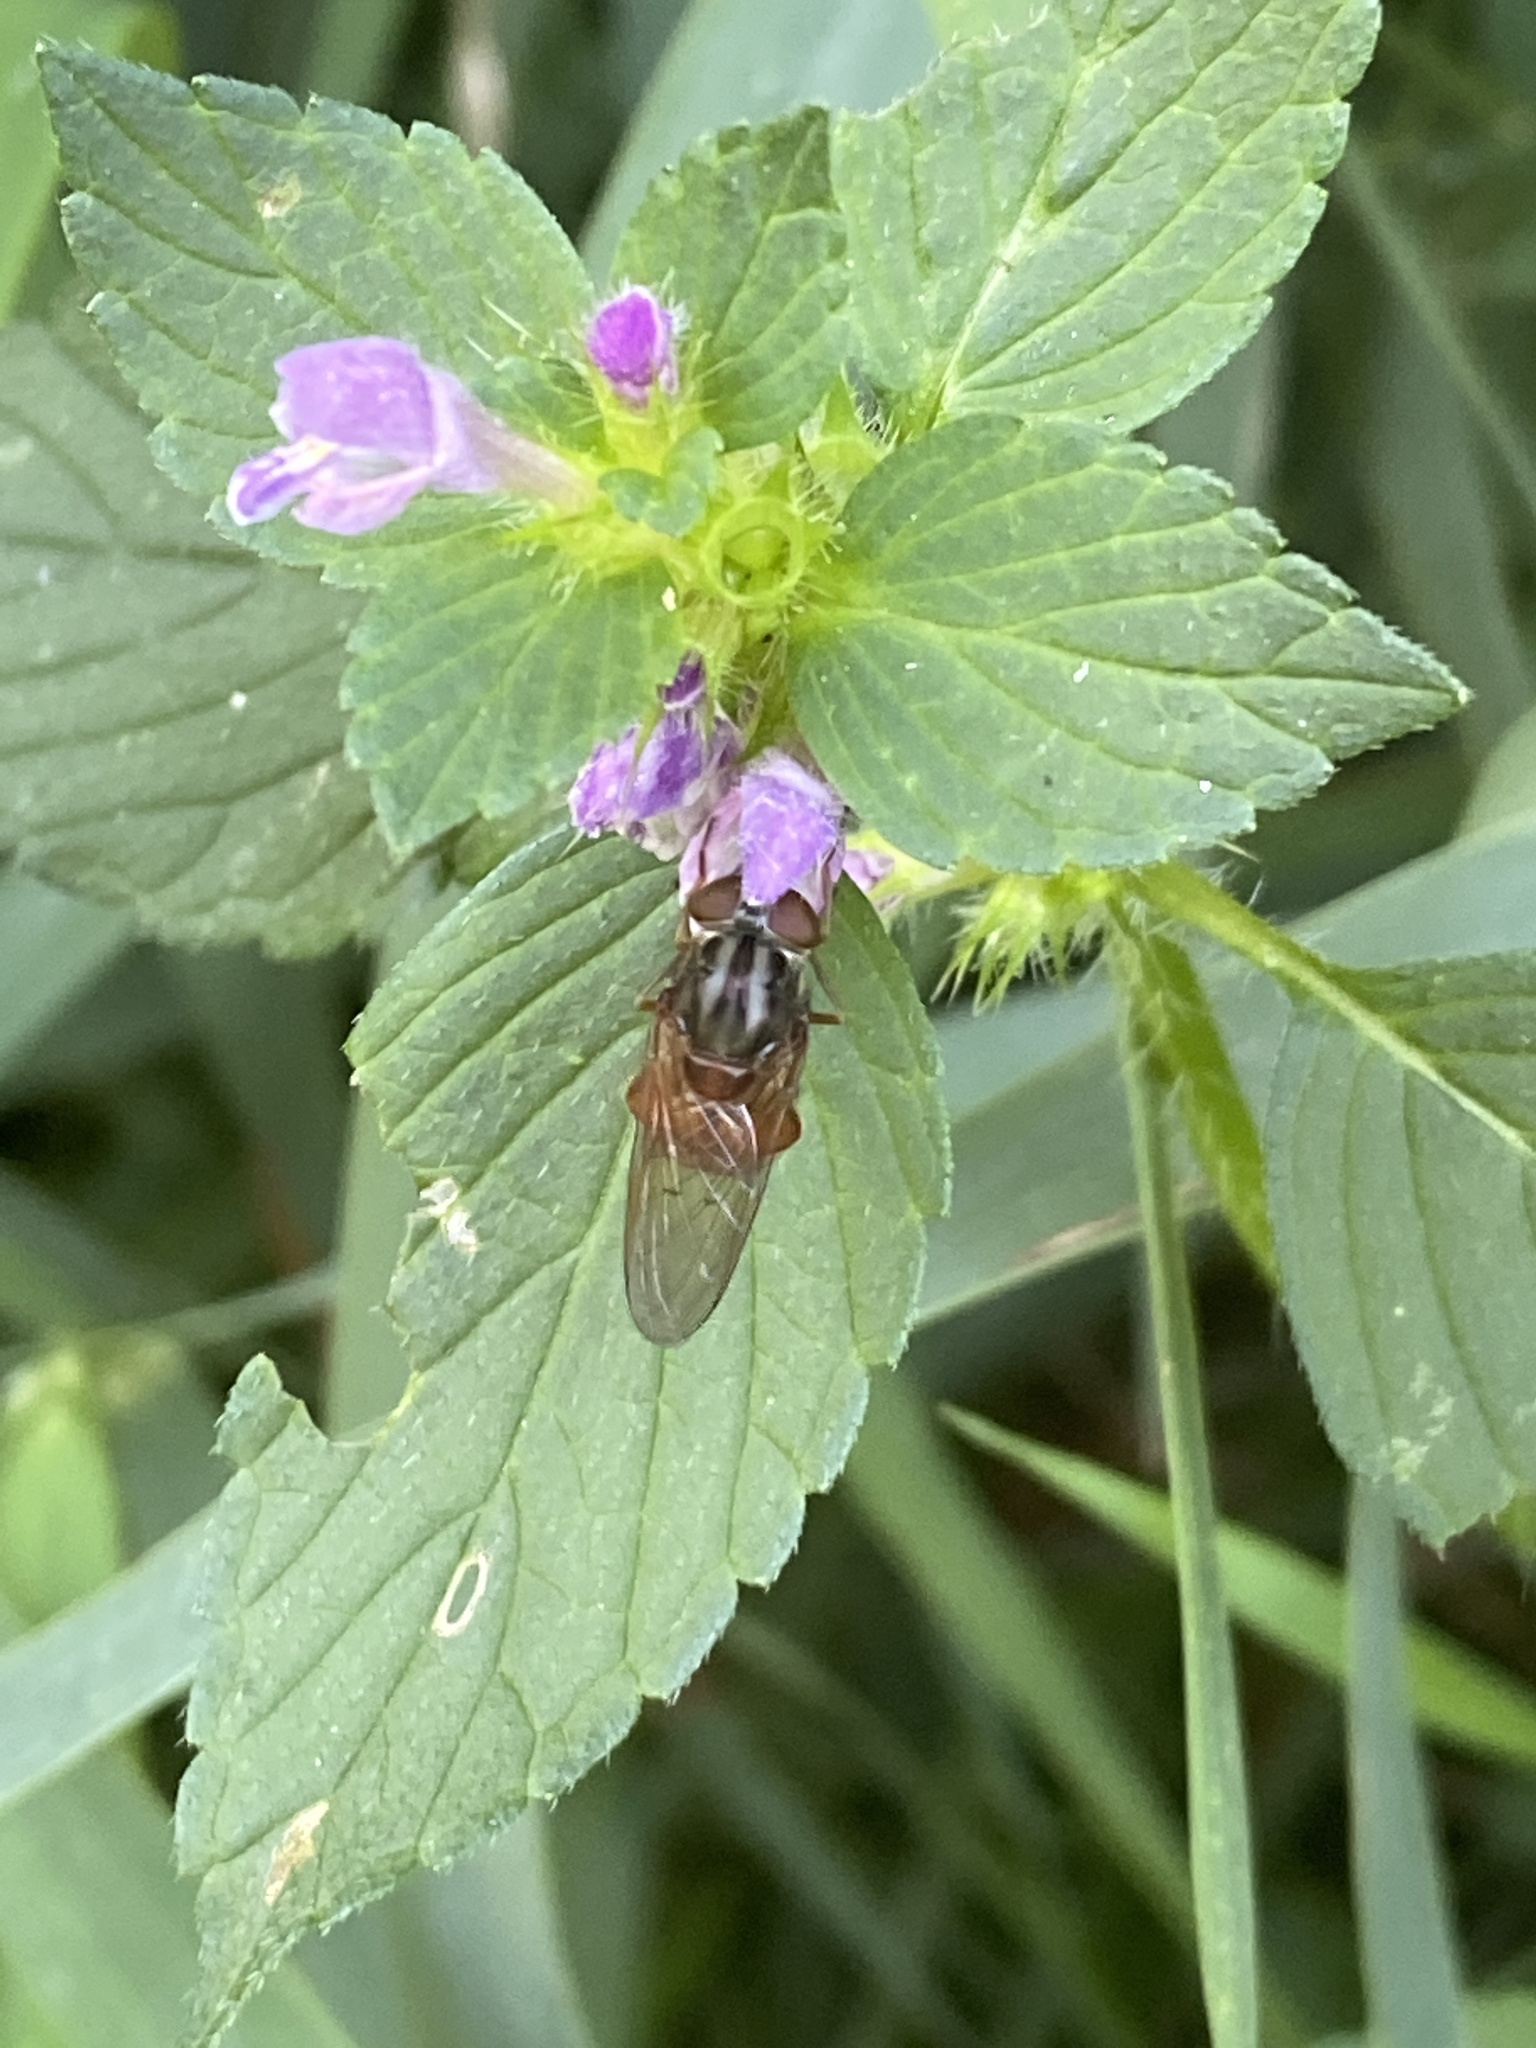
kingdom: Animalia
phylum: Arthropoda
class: Insecta
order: Diptera
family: Syrphidae
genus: Rhingia
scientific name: Rhingia campestris
